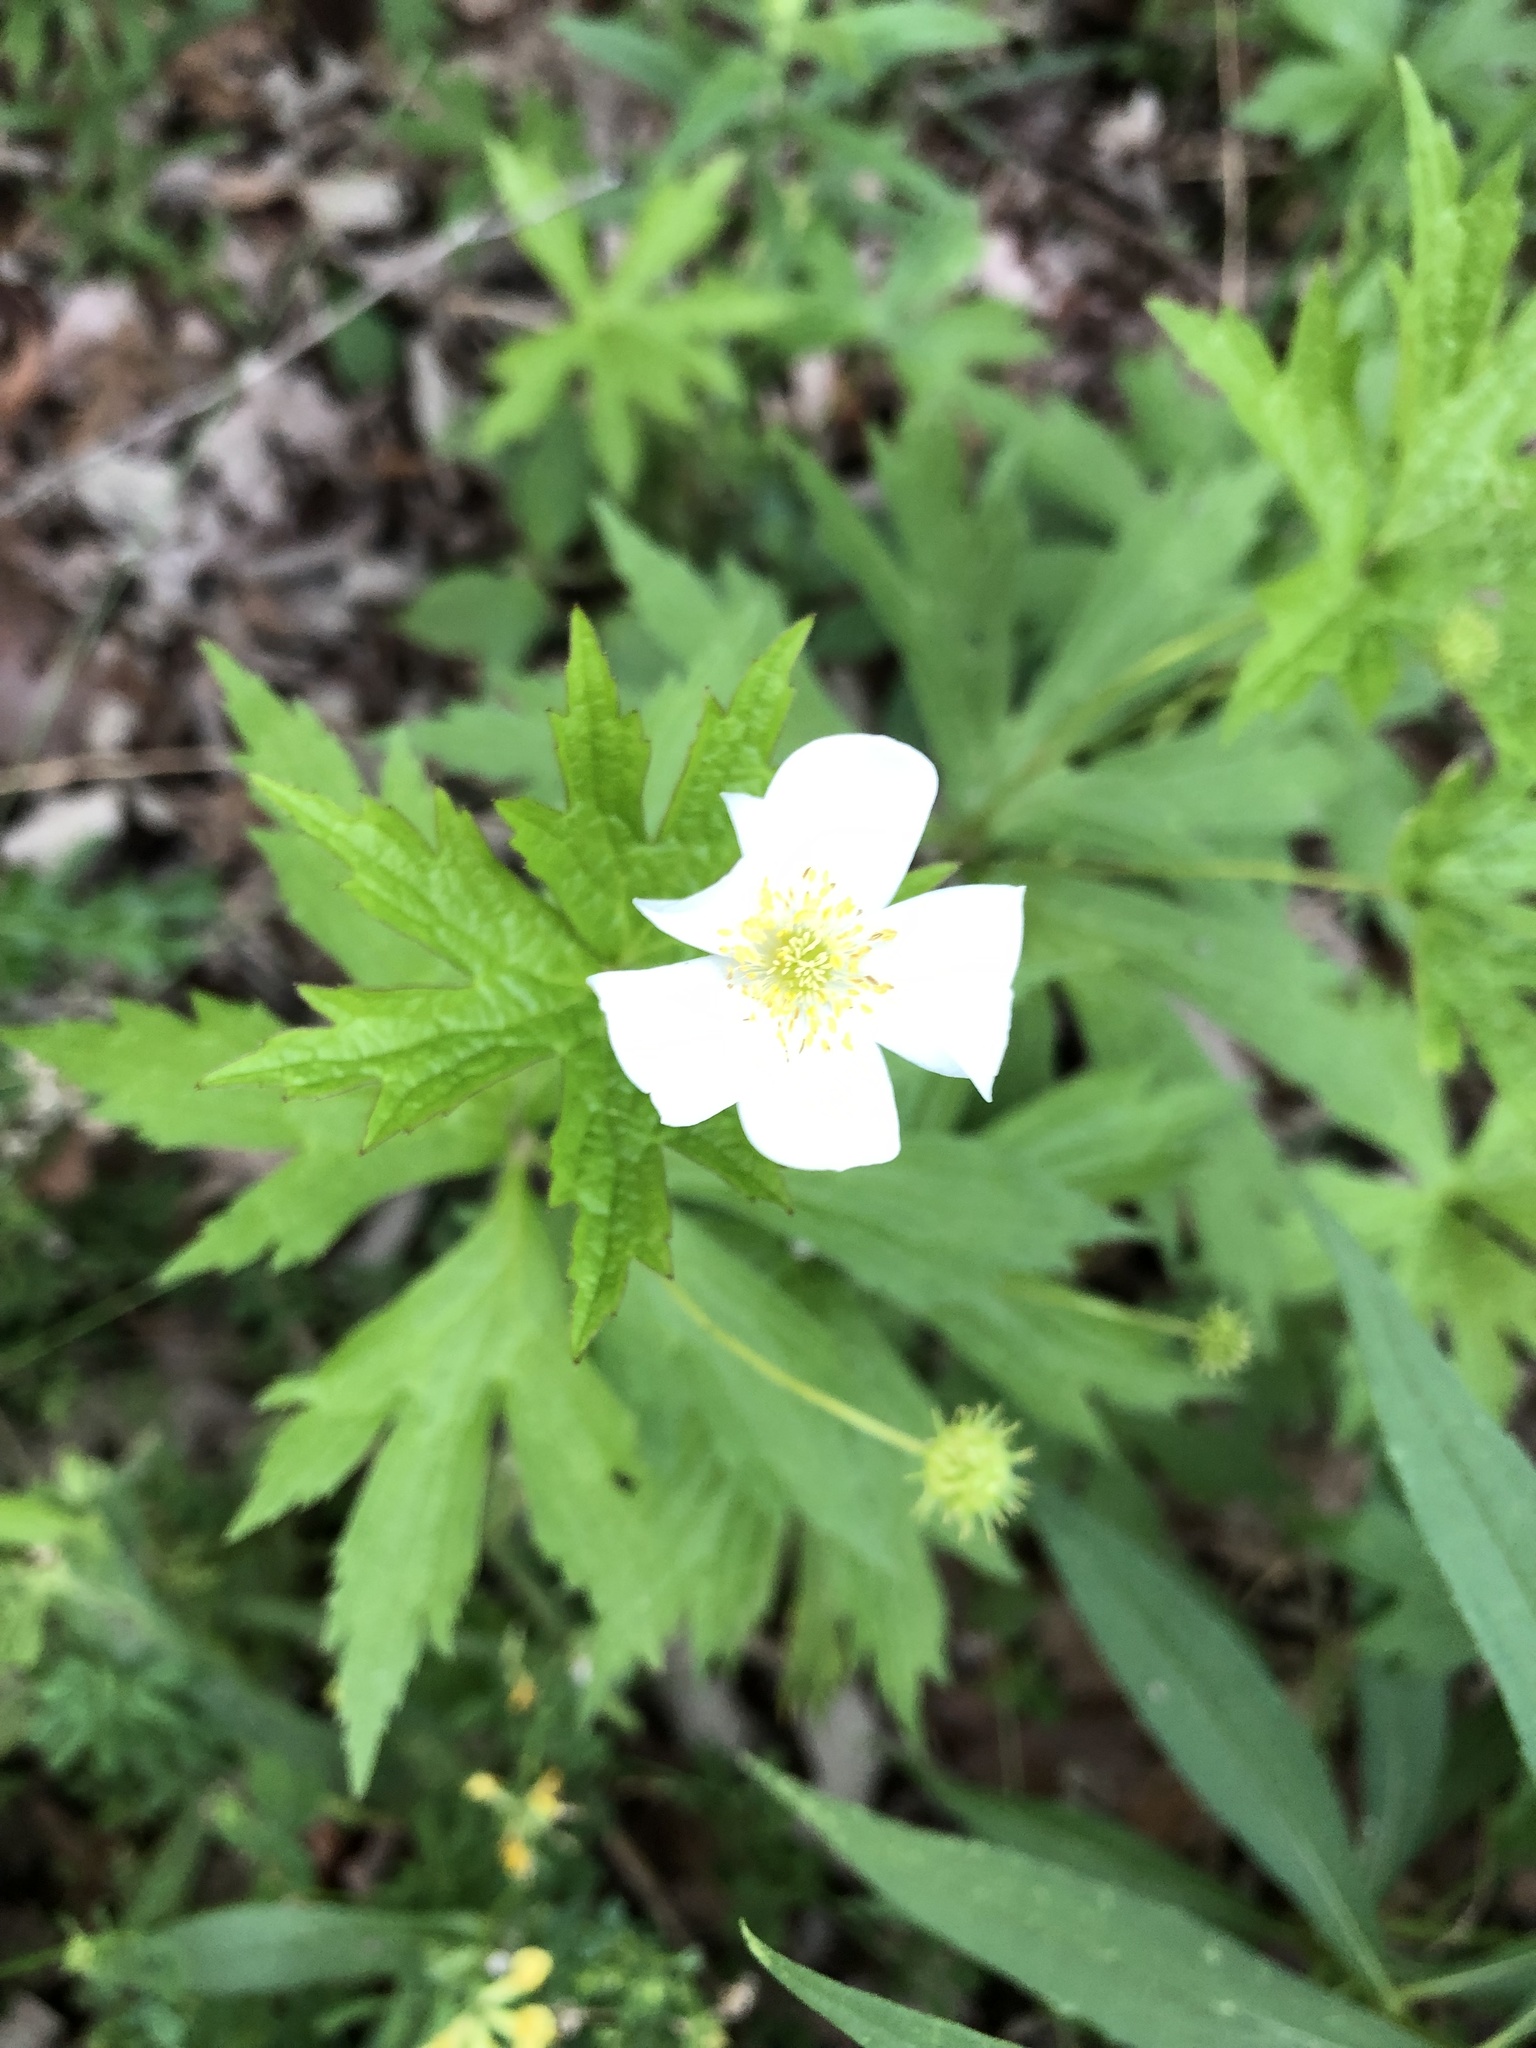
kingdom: Plantae
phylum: Tracheophyta
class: Magnoliopsida
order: Ranunculales
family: Ranunculaceae
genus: Anemonastrum
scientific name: Anemonastrum canadense
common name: Canada anemone
